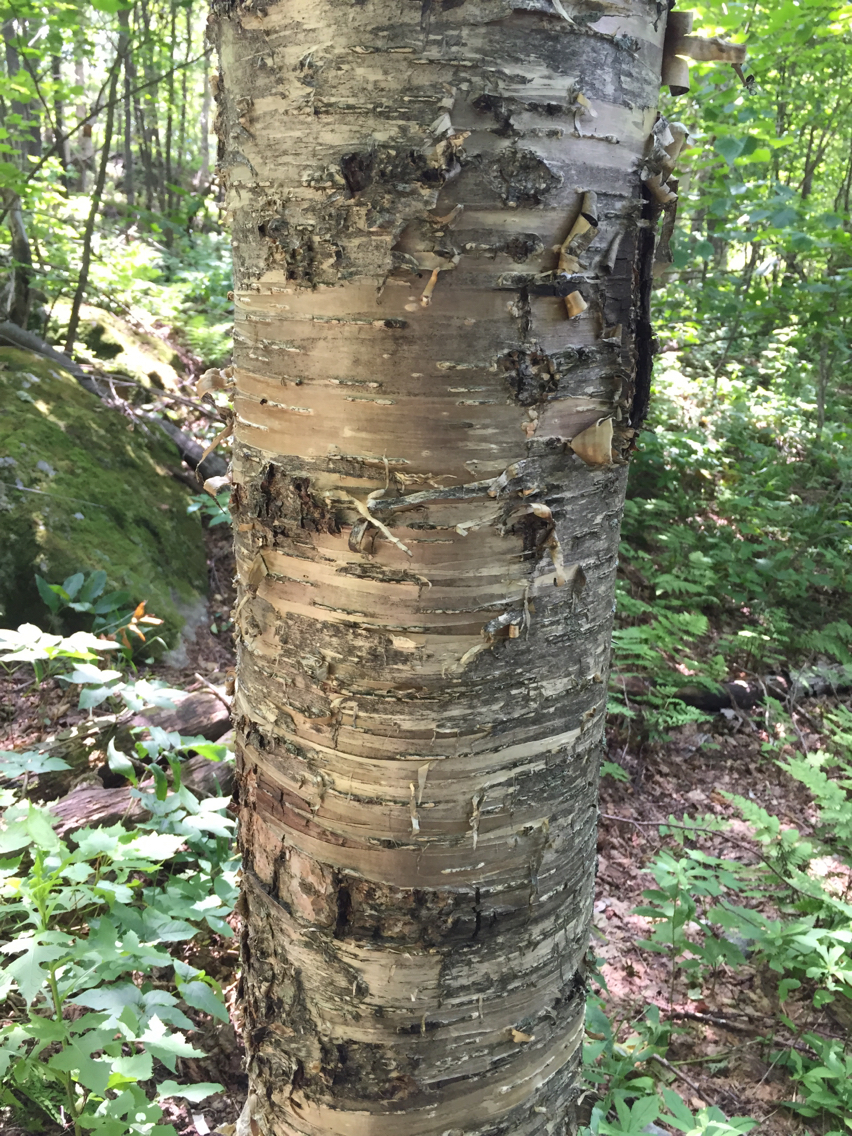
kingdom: Plantae
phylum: Tracheophyta
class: Magnoliopsida
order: Fagales
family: Betulaceae
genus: Betula
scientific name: Betula alleghaniensis
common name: Yellow birch
